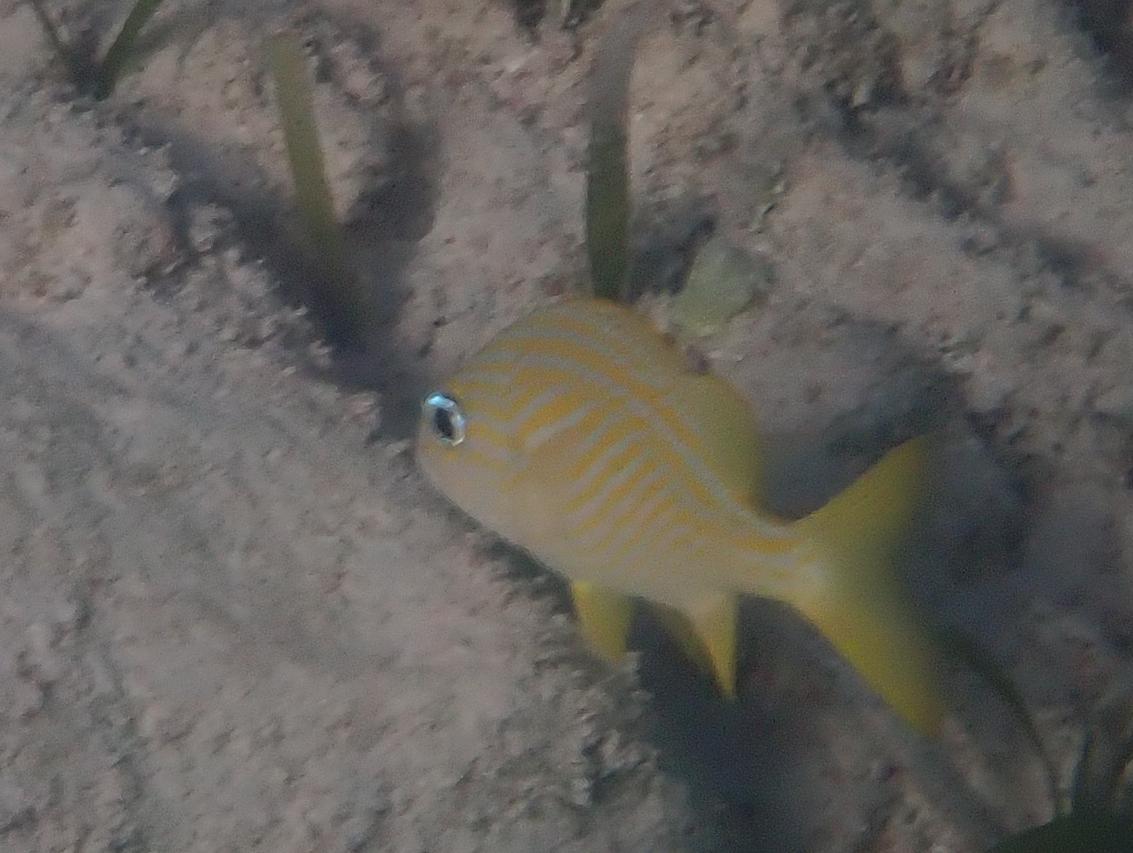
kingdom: Animalia
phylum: Chordata
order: Perciformes
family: Haemulidae
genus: Haemulon
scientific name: Haemulon flavolineatum
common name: French grunt
